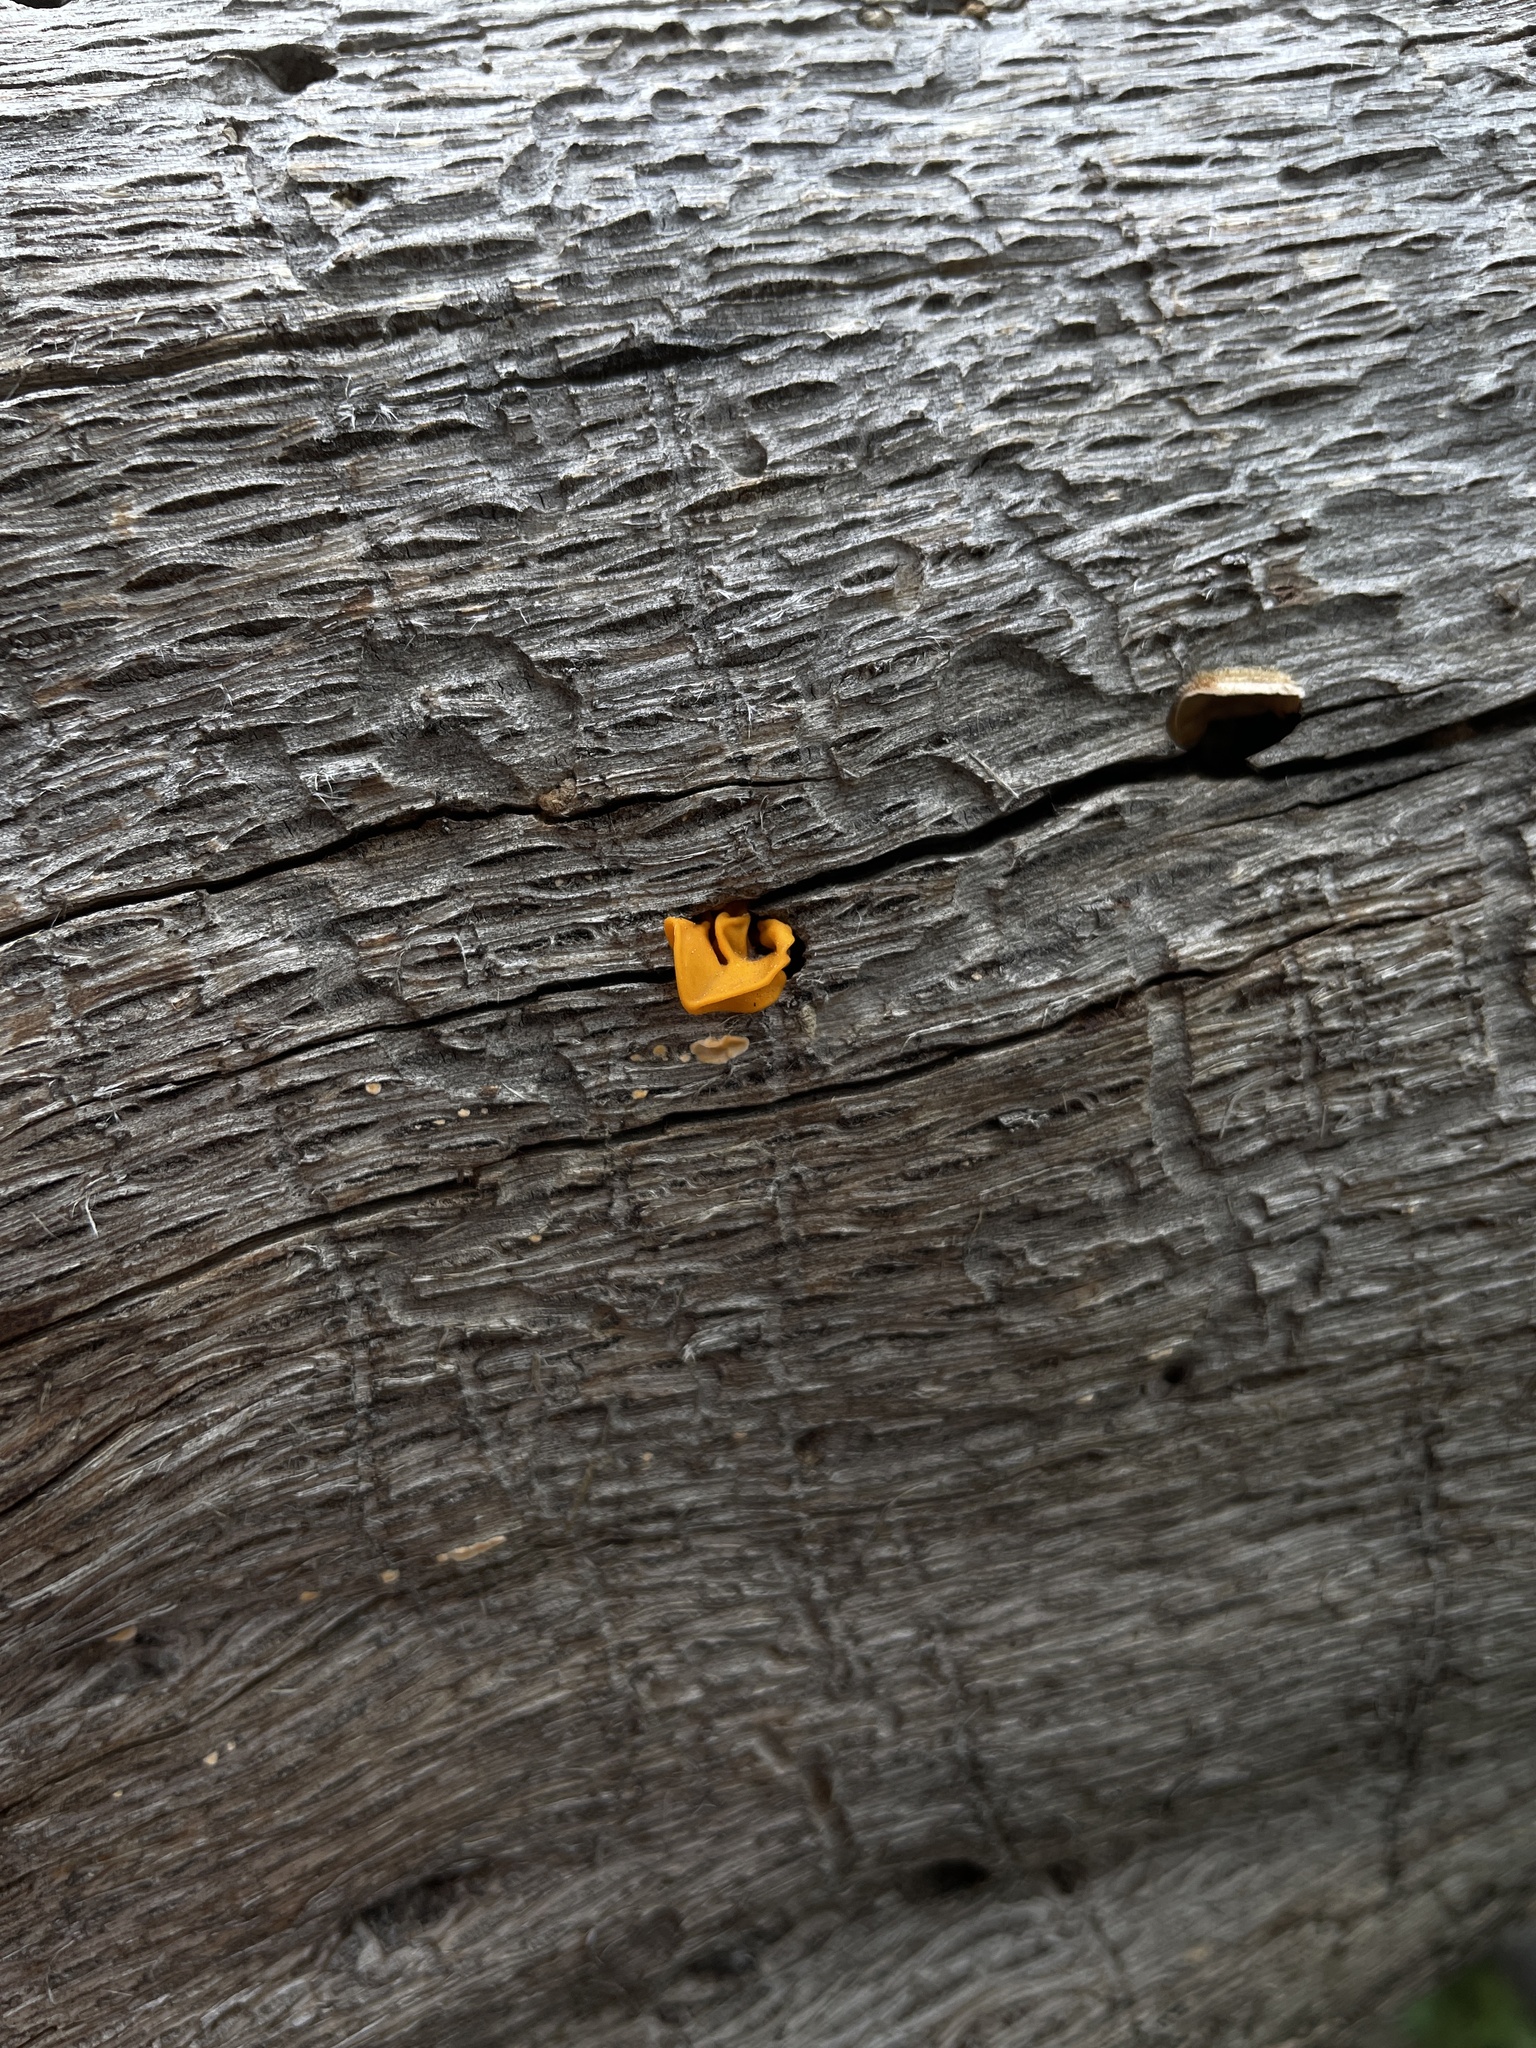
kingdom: Fungi
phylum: Basidiomycota
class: Tremellomycetes
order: Tremellales
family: Naemateliaceae
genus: Naematelia
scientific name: Naematelia aurantia
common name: Golden ear
